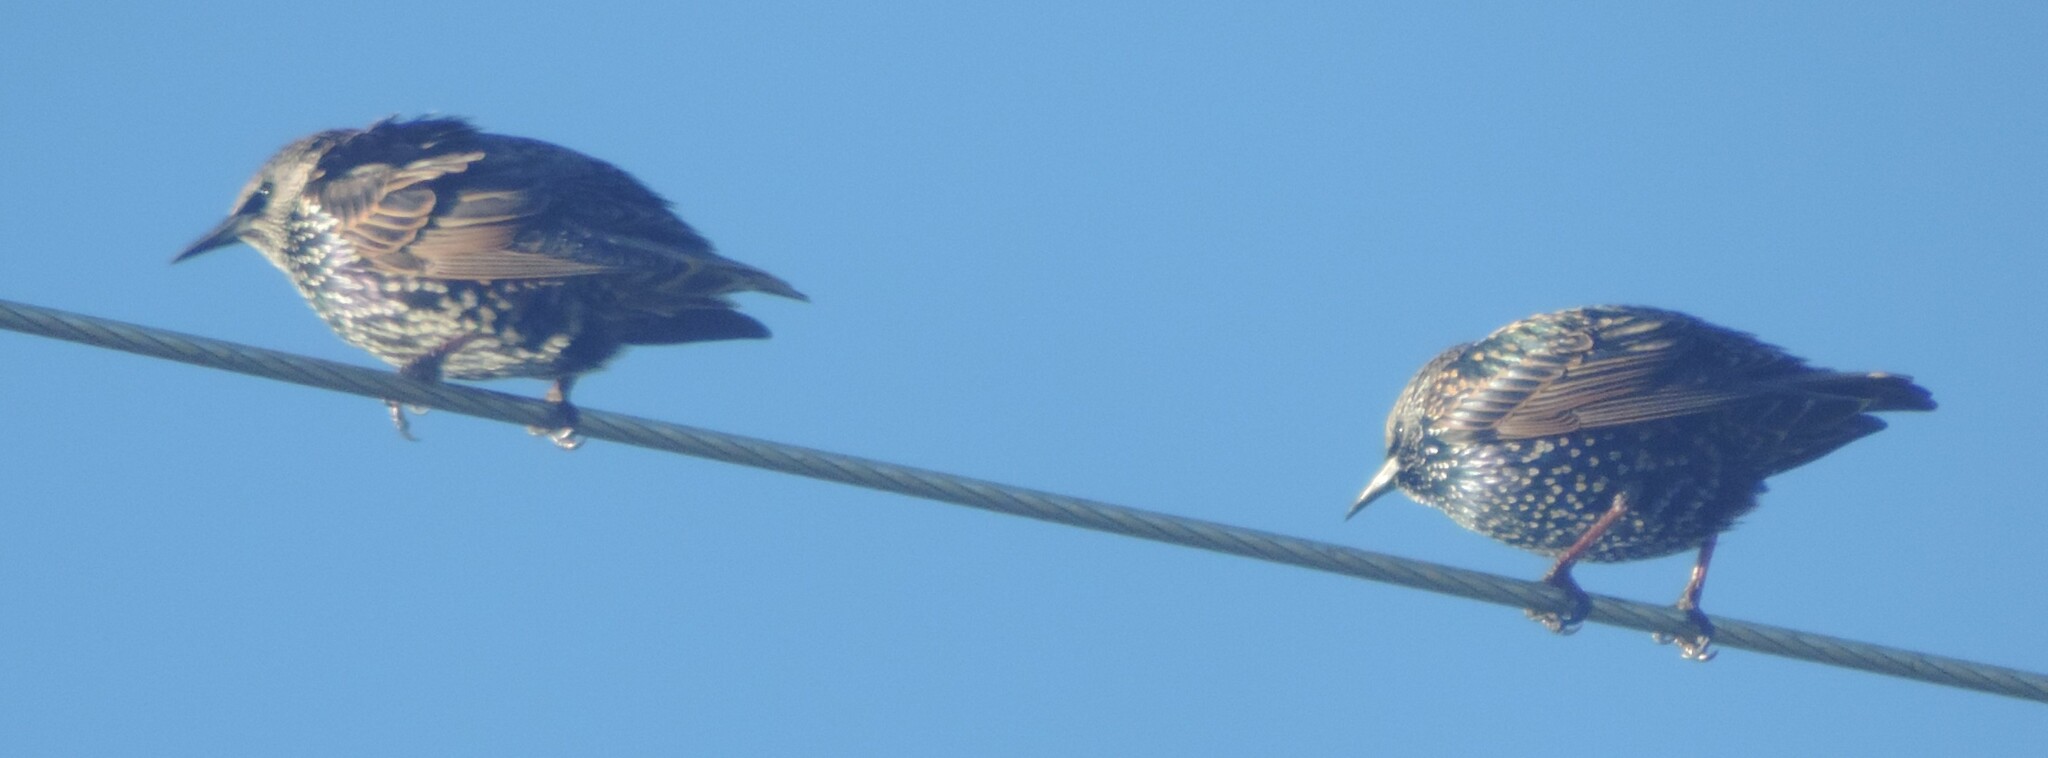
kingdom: Animalia
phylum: Chordata
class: Aves
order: Passeriformes
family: Sturnidae
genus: Sturnus
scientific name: Sturnus vulgaris
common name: Common starling
